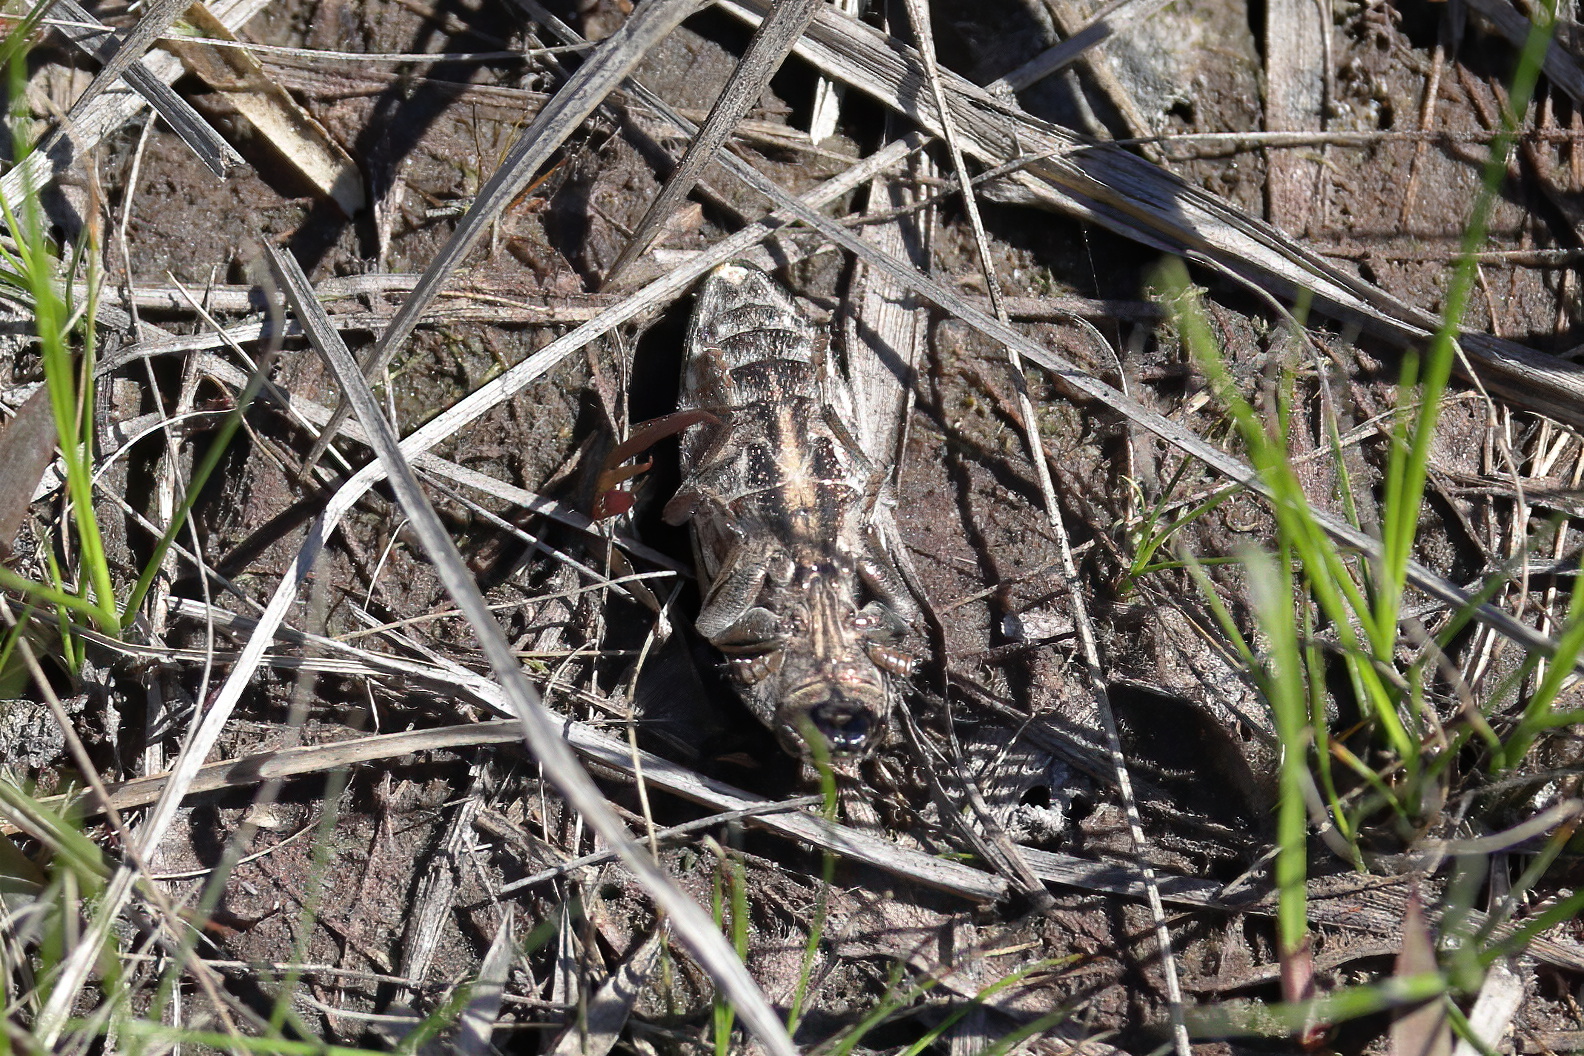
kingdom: Animalia
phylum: Arthropoda
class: Insecta
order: Coleoptera
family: Buprestidae
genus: Chalcophora
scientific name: Chalcophora georgiana
